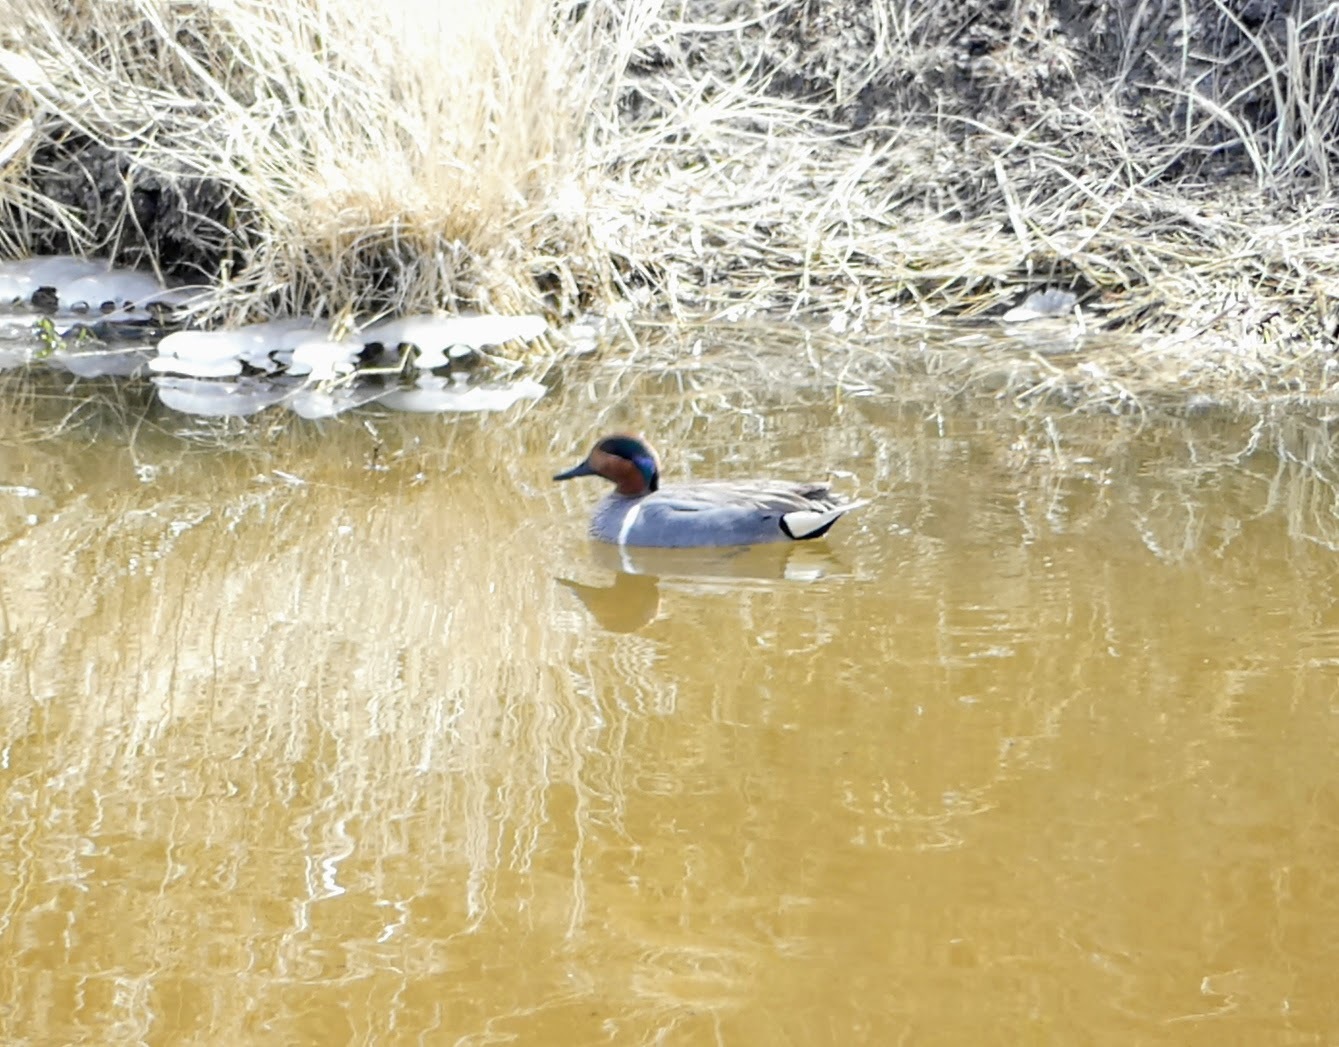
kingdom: Animalia
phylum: Chordata
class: Aves
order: Anseriformes
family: Anatidae
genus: Anas
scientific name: Anas crecca
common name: Eurasian teal
